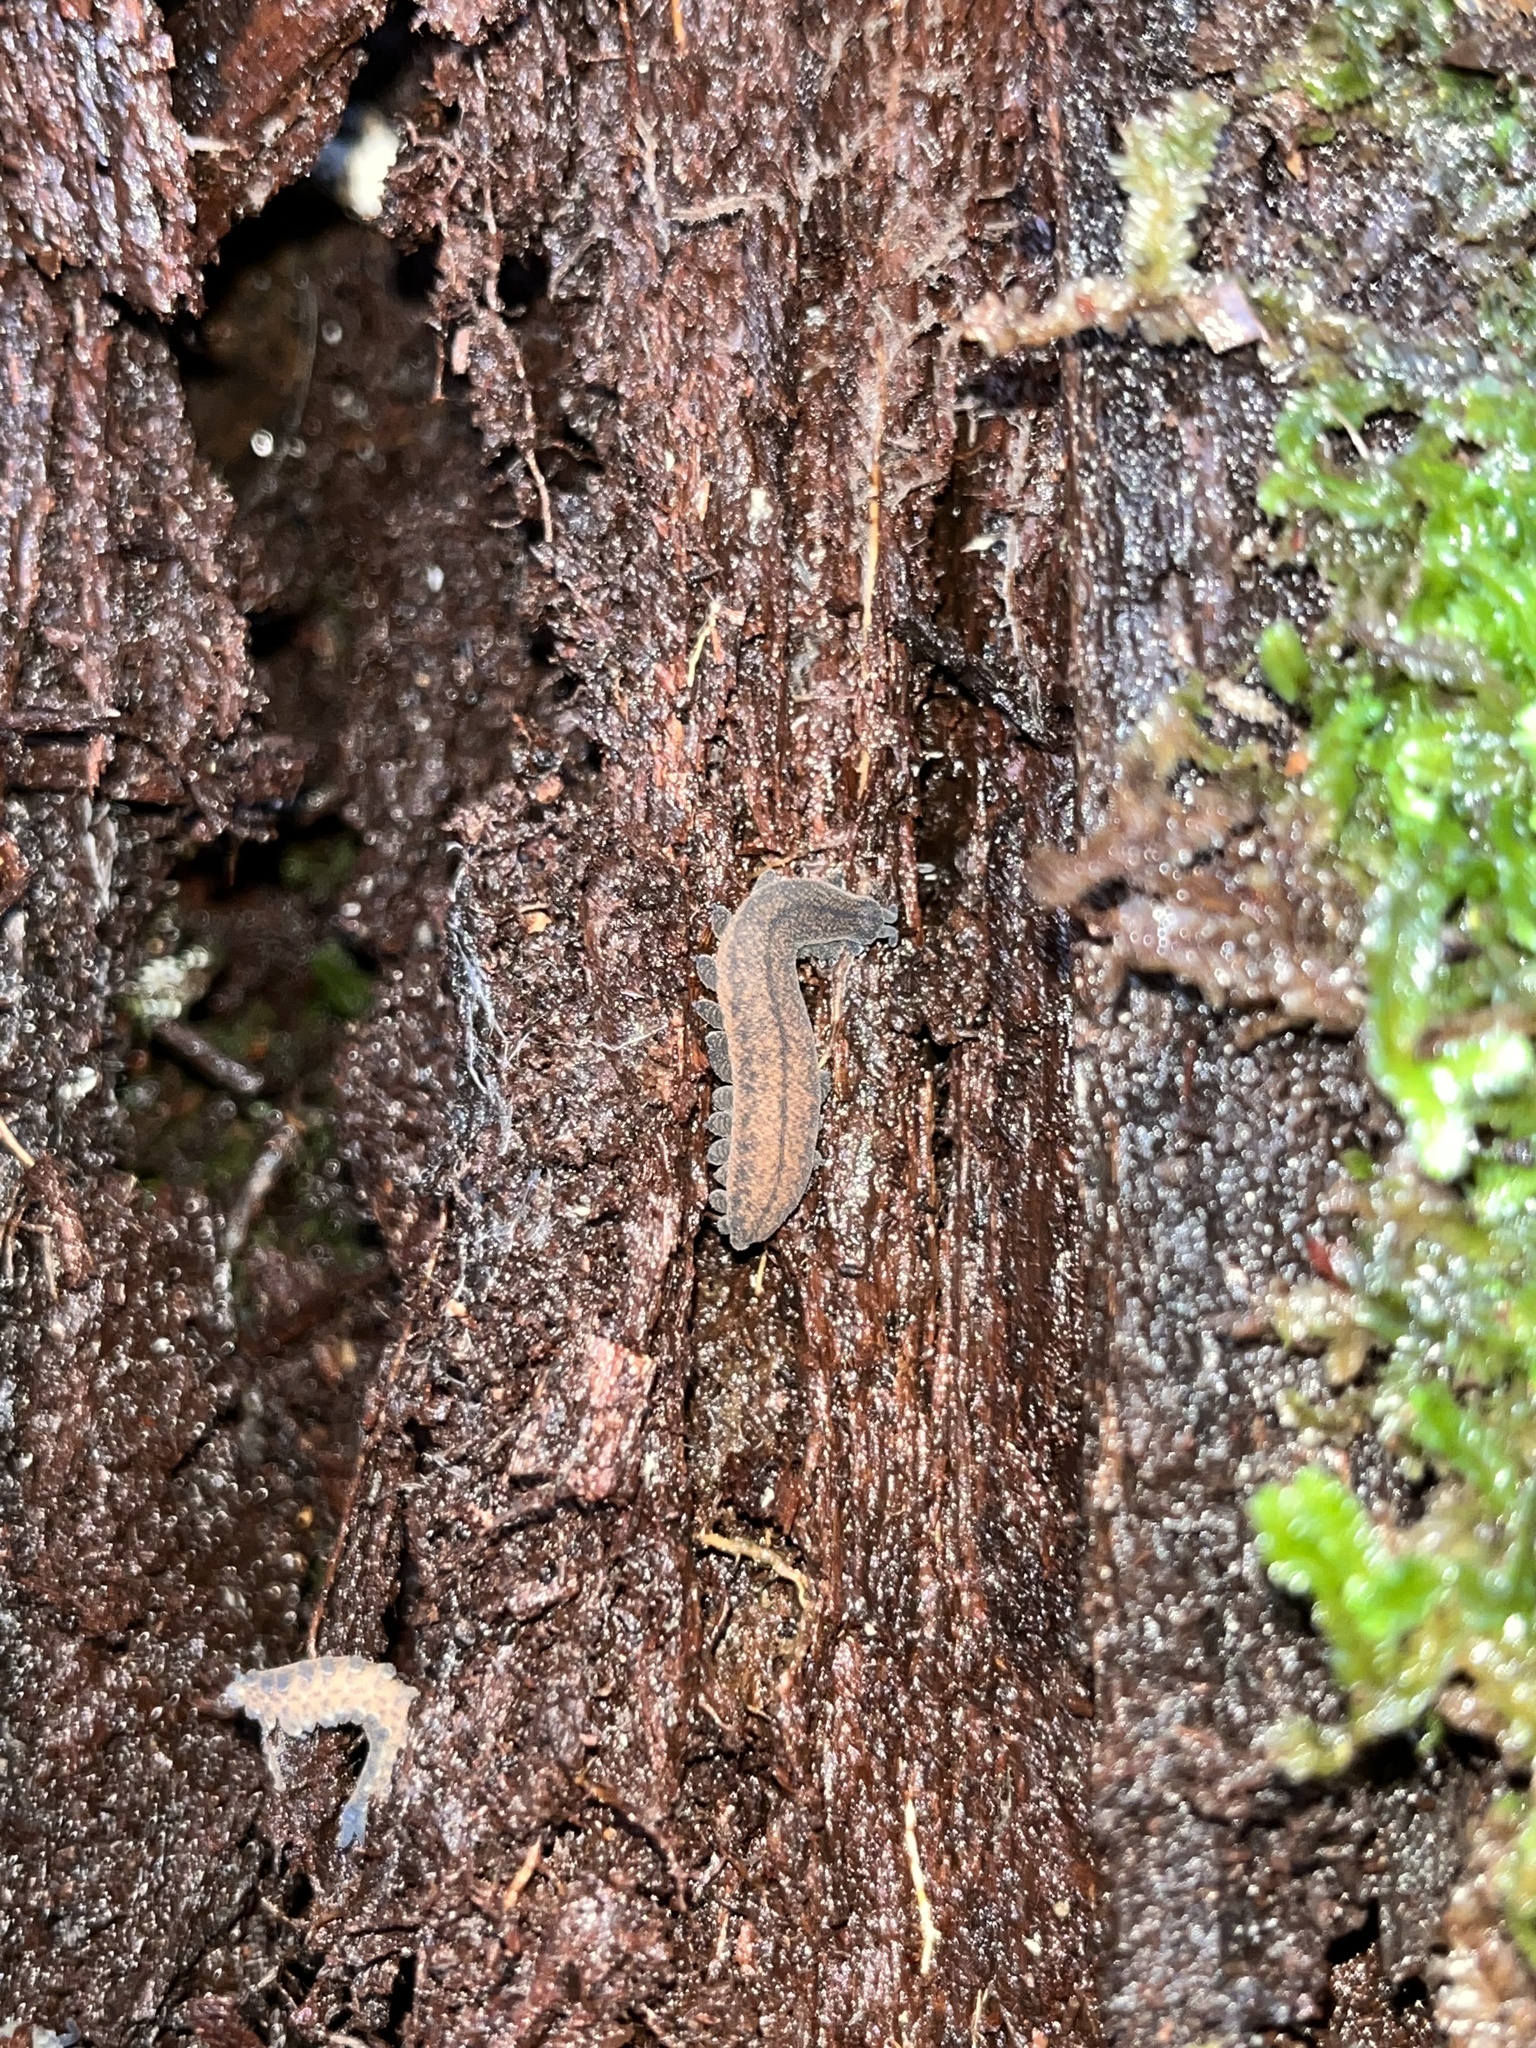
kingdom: Animalia
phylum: Onychophora
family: Peripatopsidae
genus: Peripatoides
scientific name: Peripatoides
